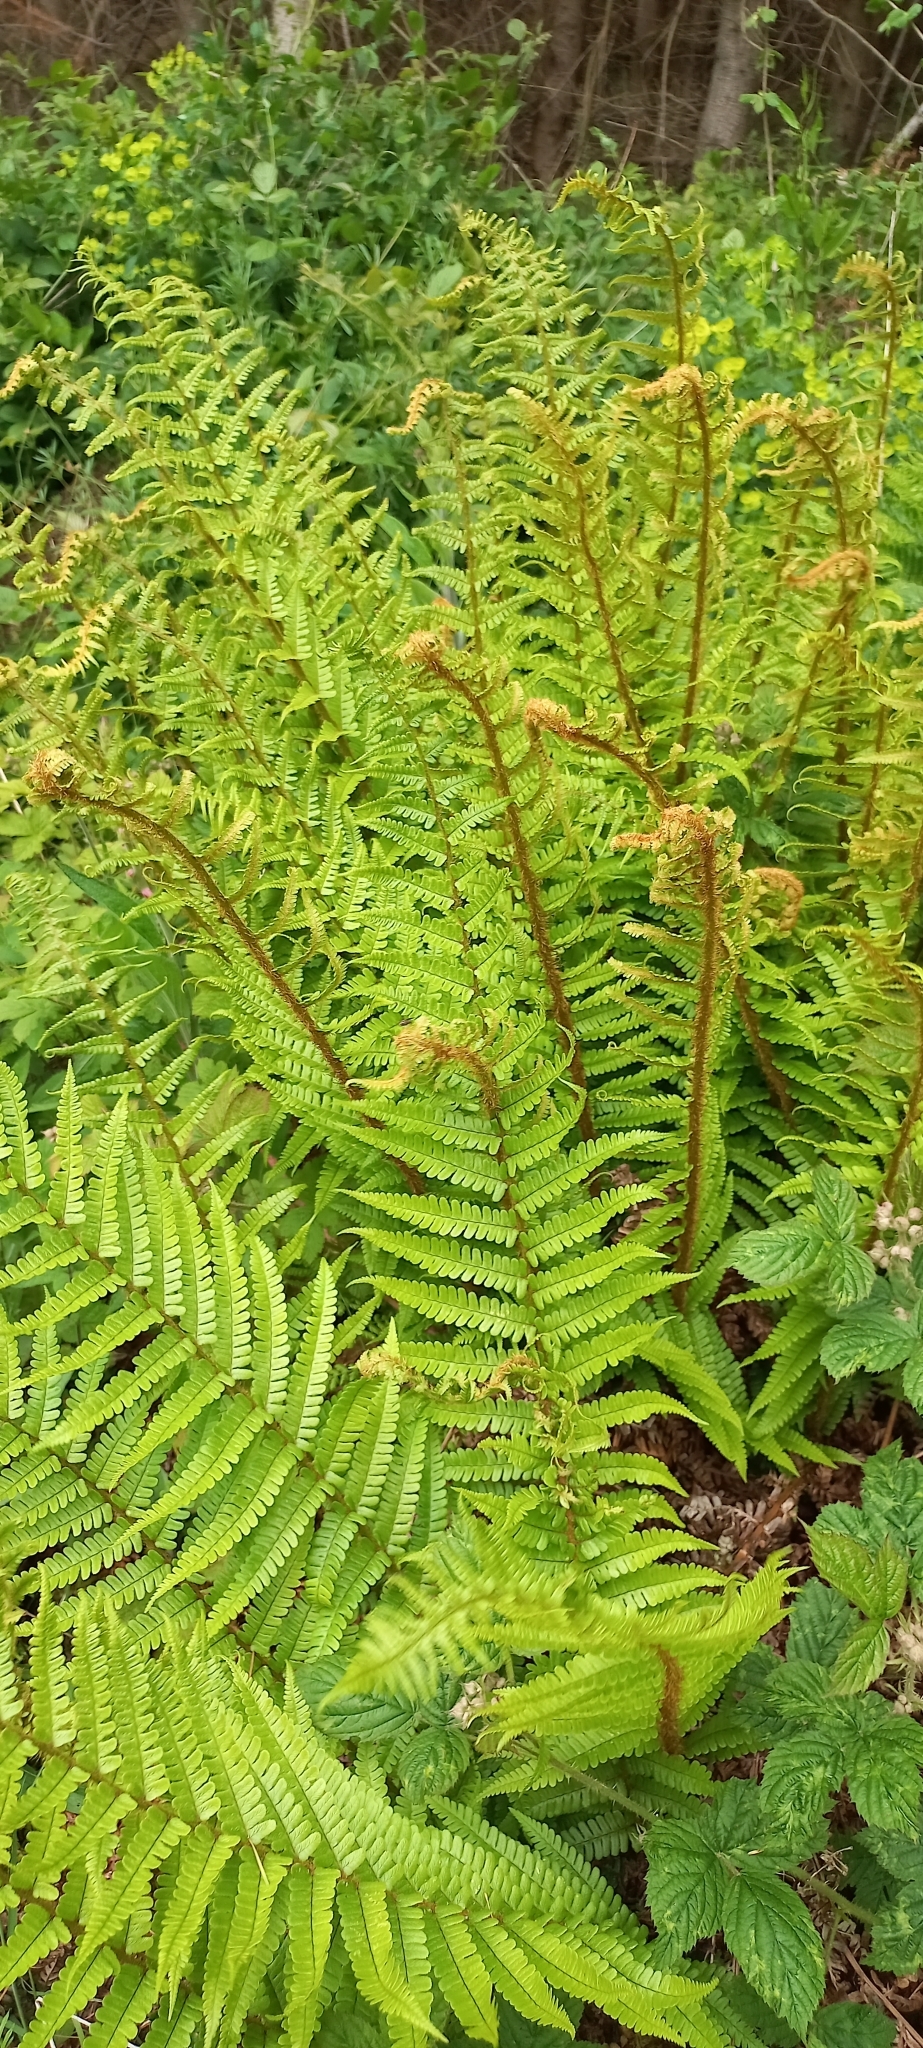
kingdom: Plantae
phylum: Tracheophyta
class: Polypodiopsida
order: Polypodiales
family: Dryopteridaceae
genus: Dryopteris
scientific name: Dryopteris affinis
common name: Scaly male fern
